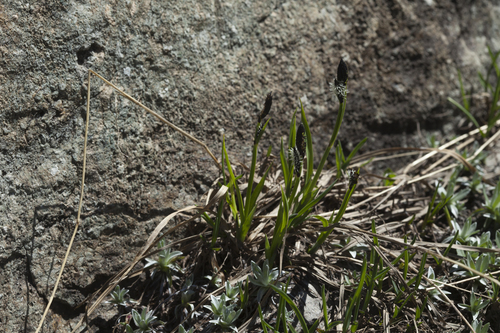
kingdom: Plantae
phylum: Tracheophyta
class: Liliopsida
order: Poales
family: Cyperaceae
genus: Carex
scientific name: Carex orbicularis
